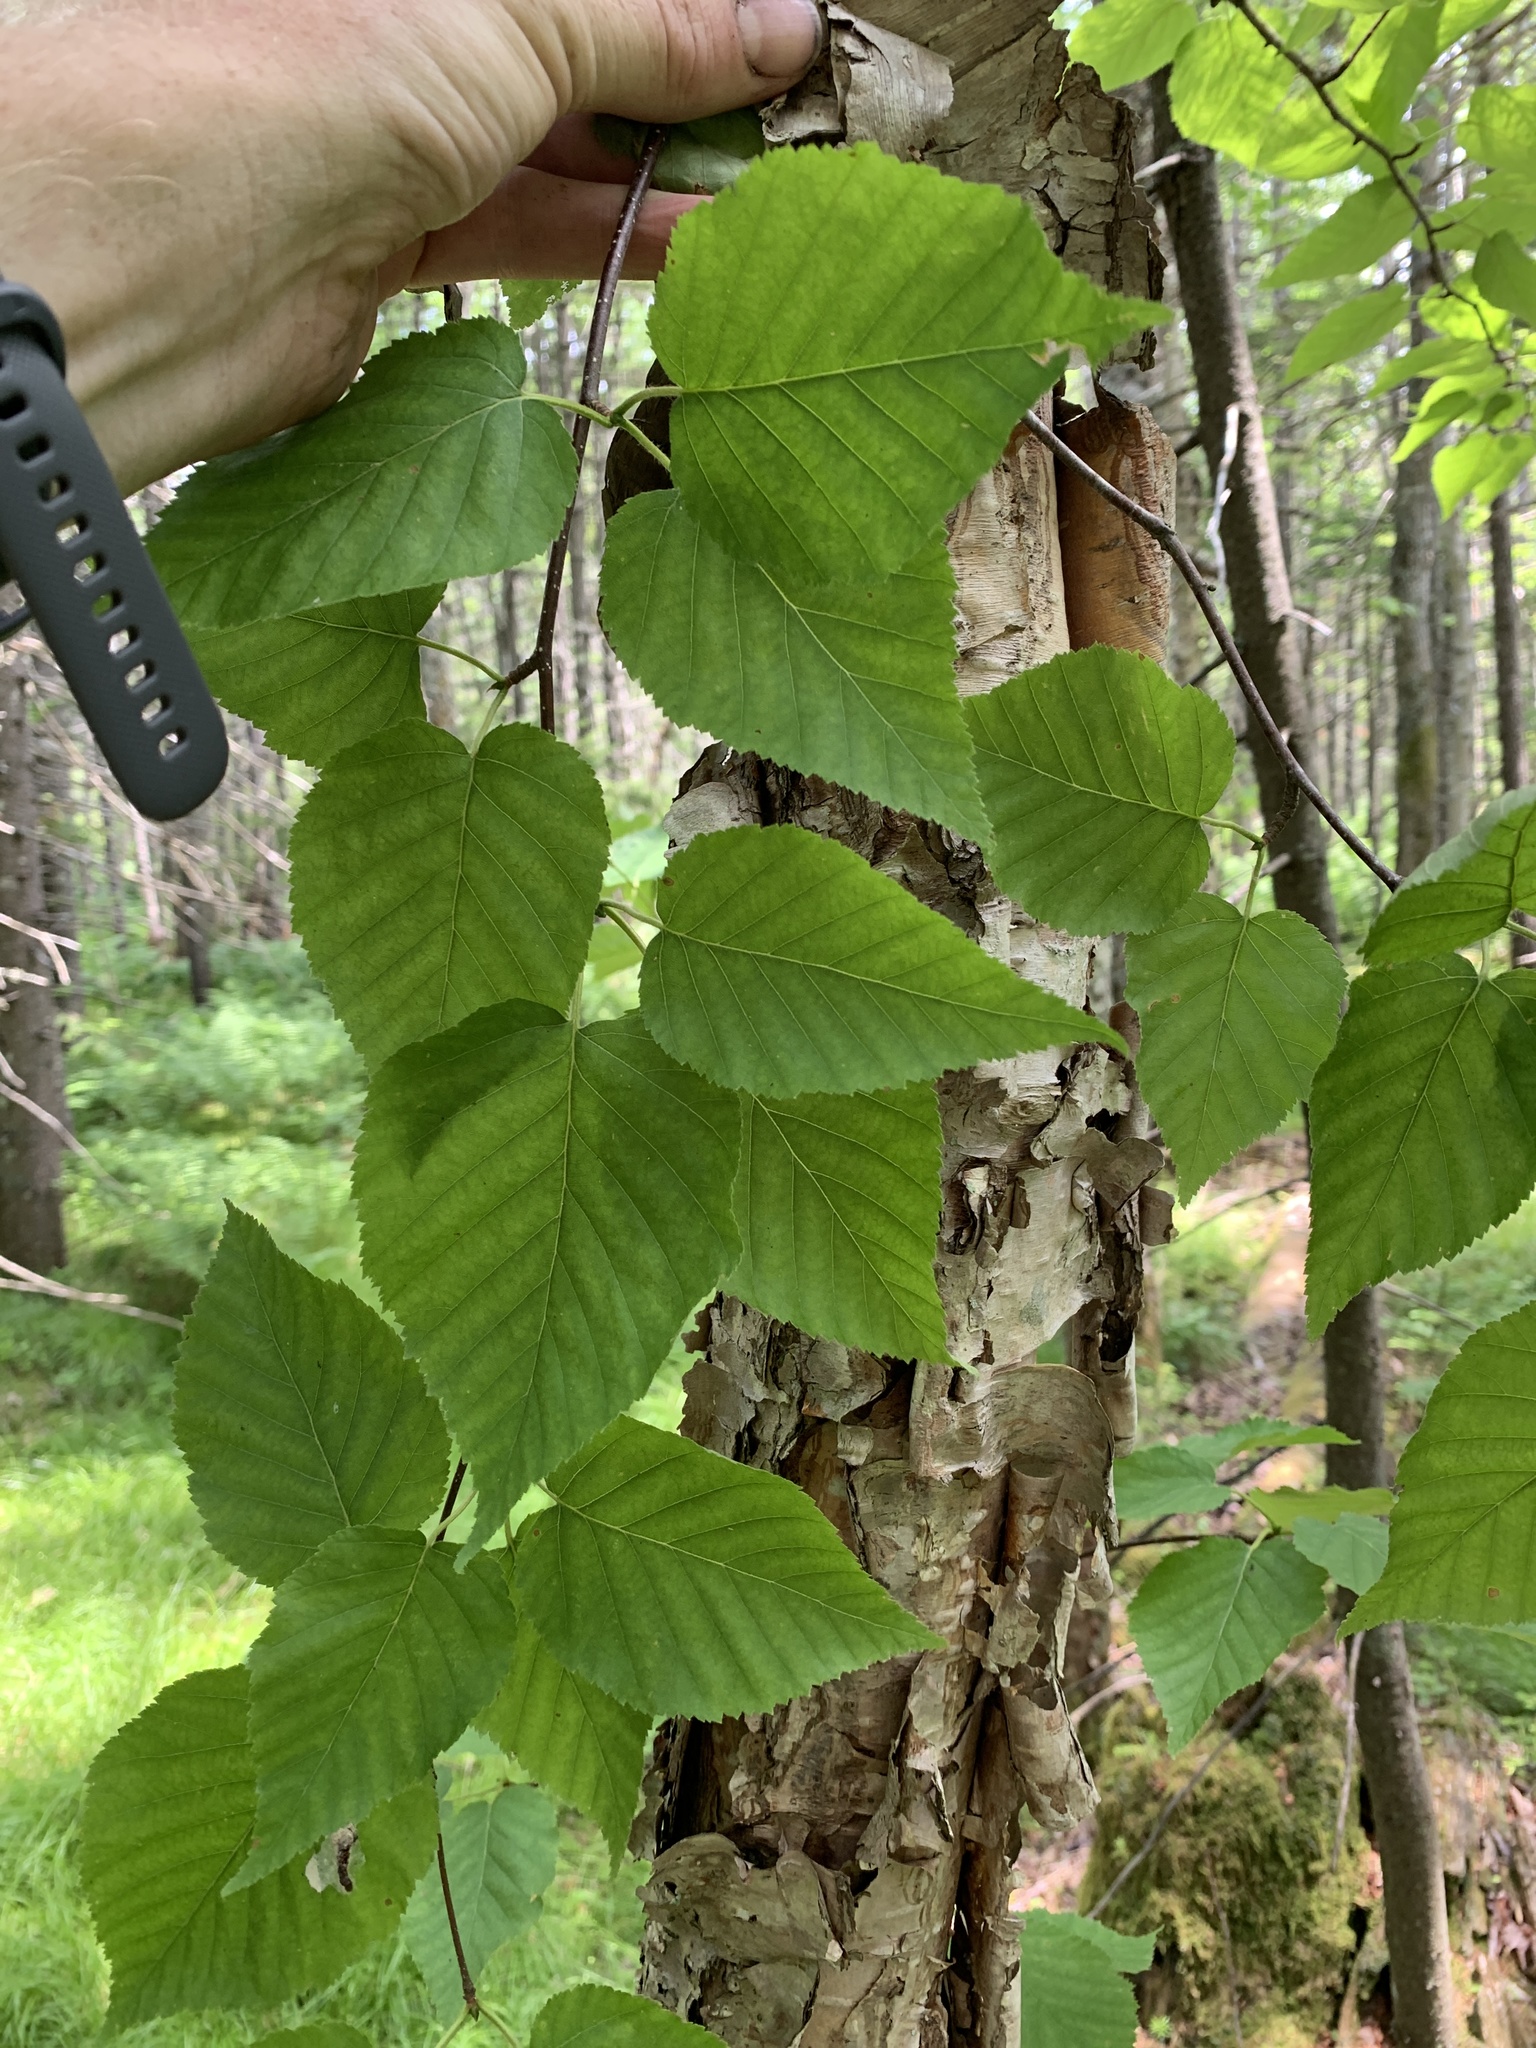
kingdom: Plantae
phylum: Tracheophyta
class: Magnoliopsida
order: Fagales
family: Betulaceae
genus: Betula
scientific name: Betula cordifolia
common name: Mountain white birch
